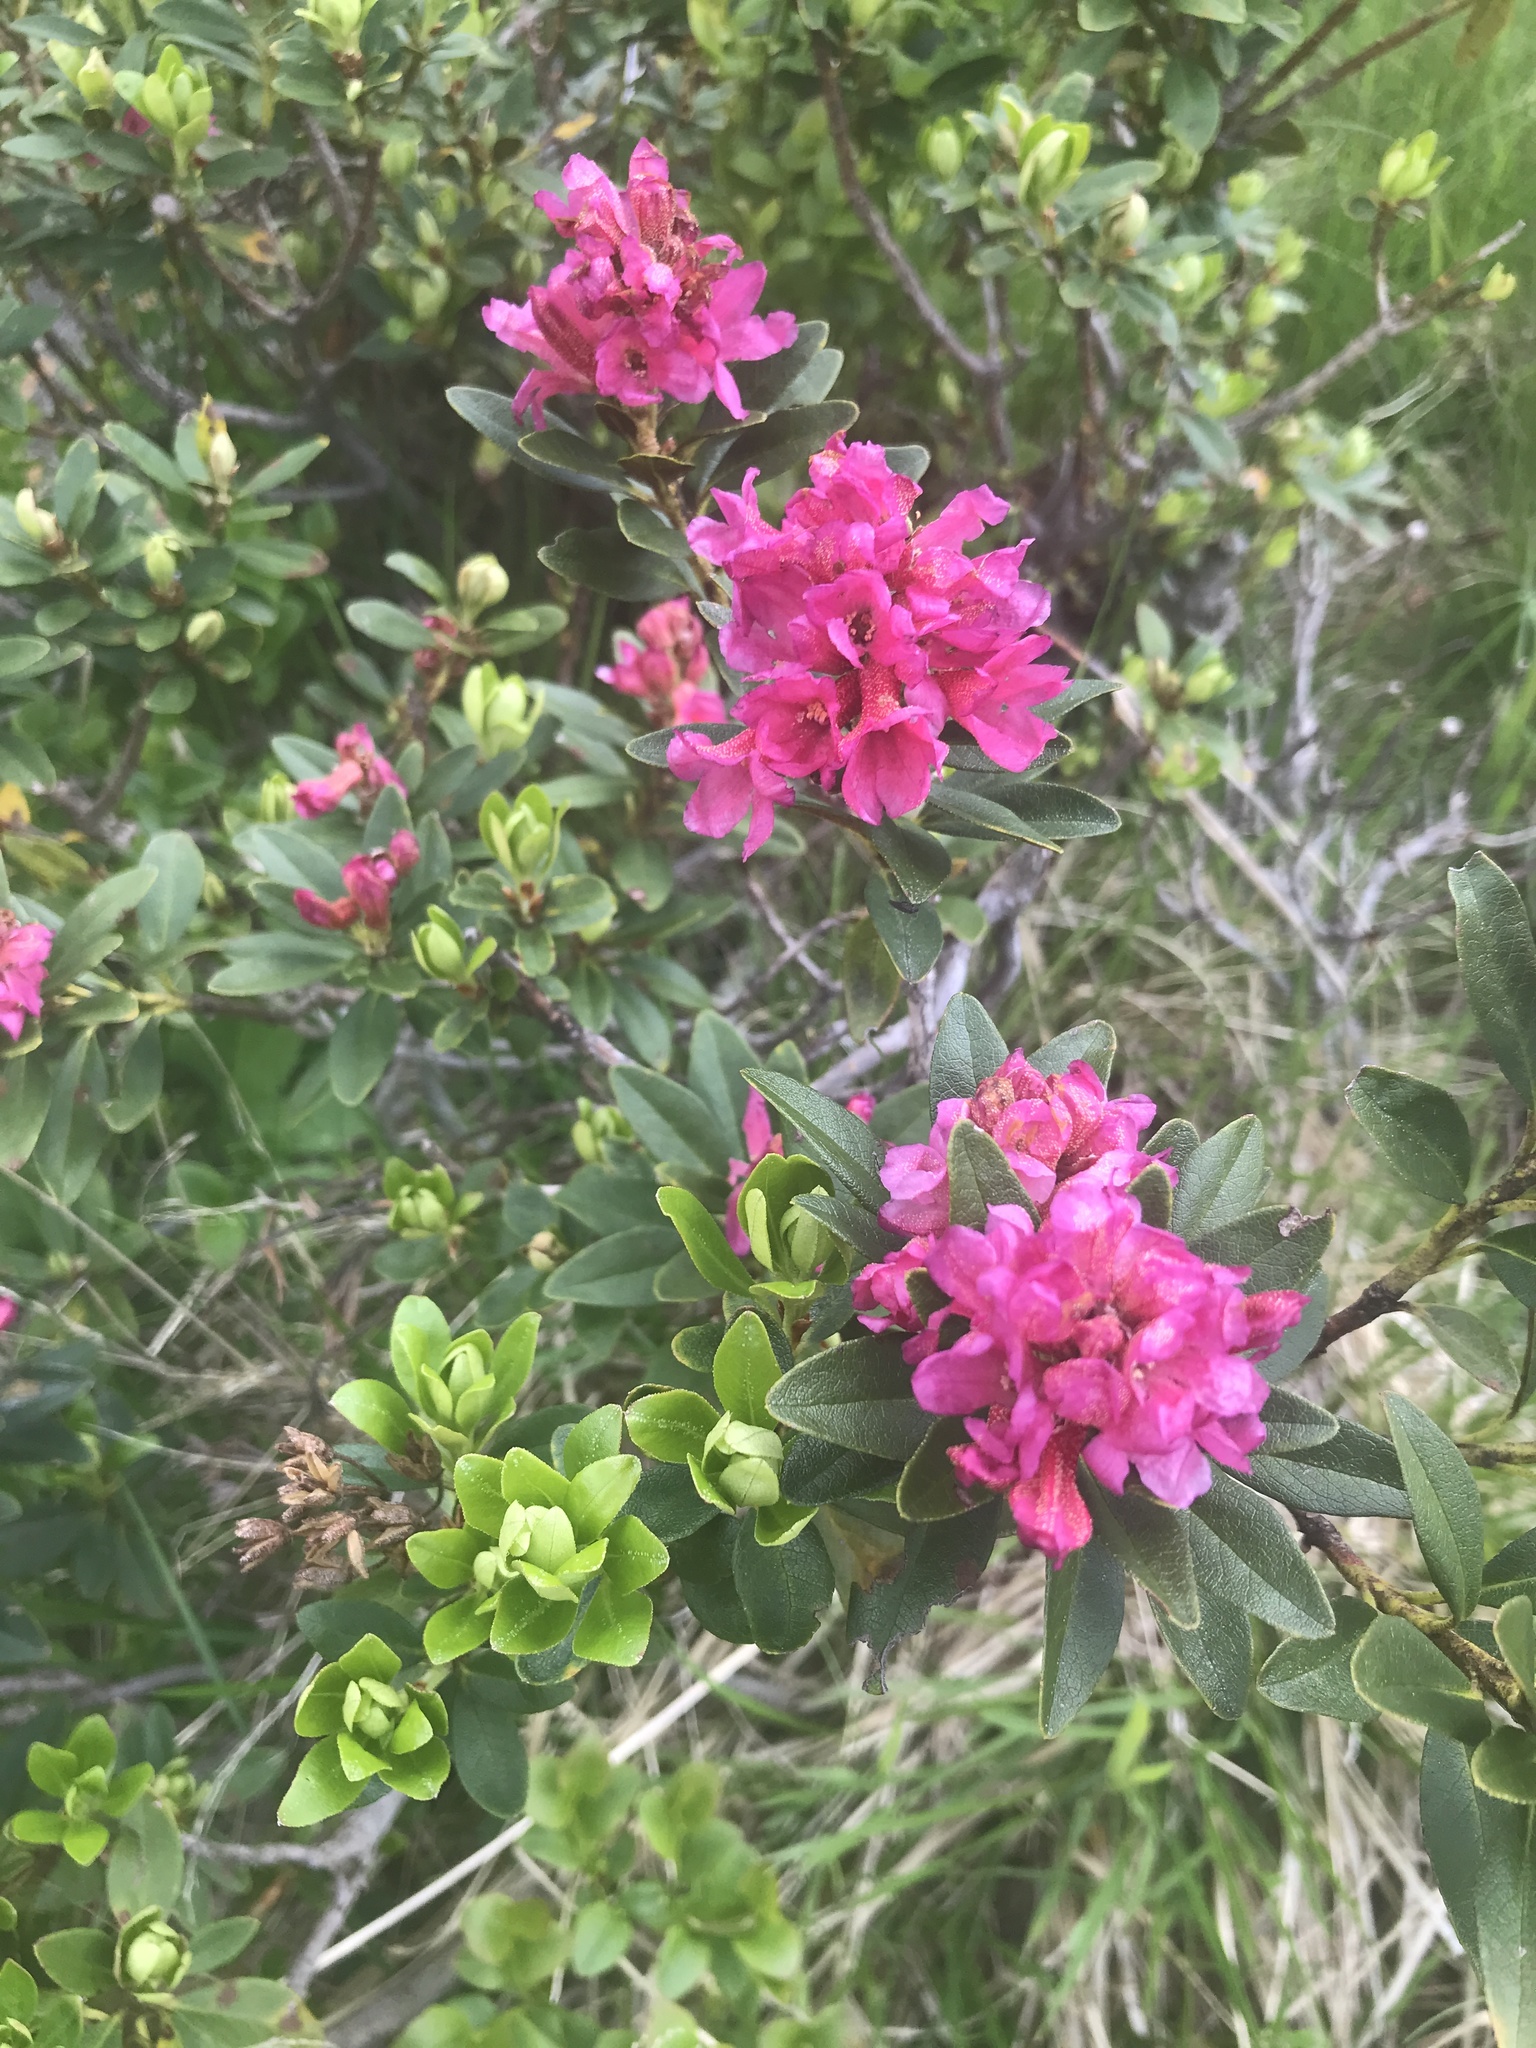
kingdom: Plantae
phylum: Tracheophyta
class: Magnoliopsida
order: Ericales
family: Ericaceae
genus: Rhododendron
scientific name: Rhododendron ferrugineum
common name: Alpenrose
